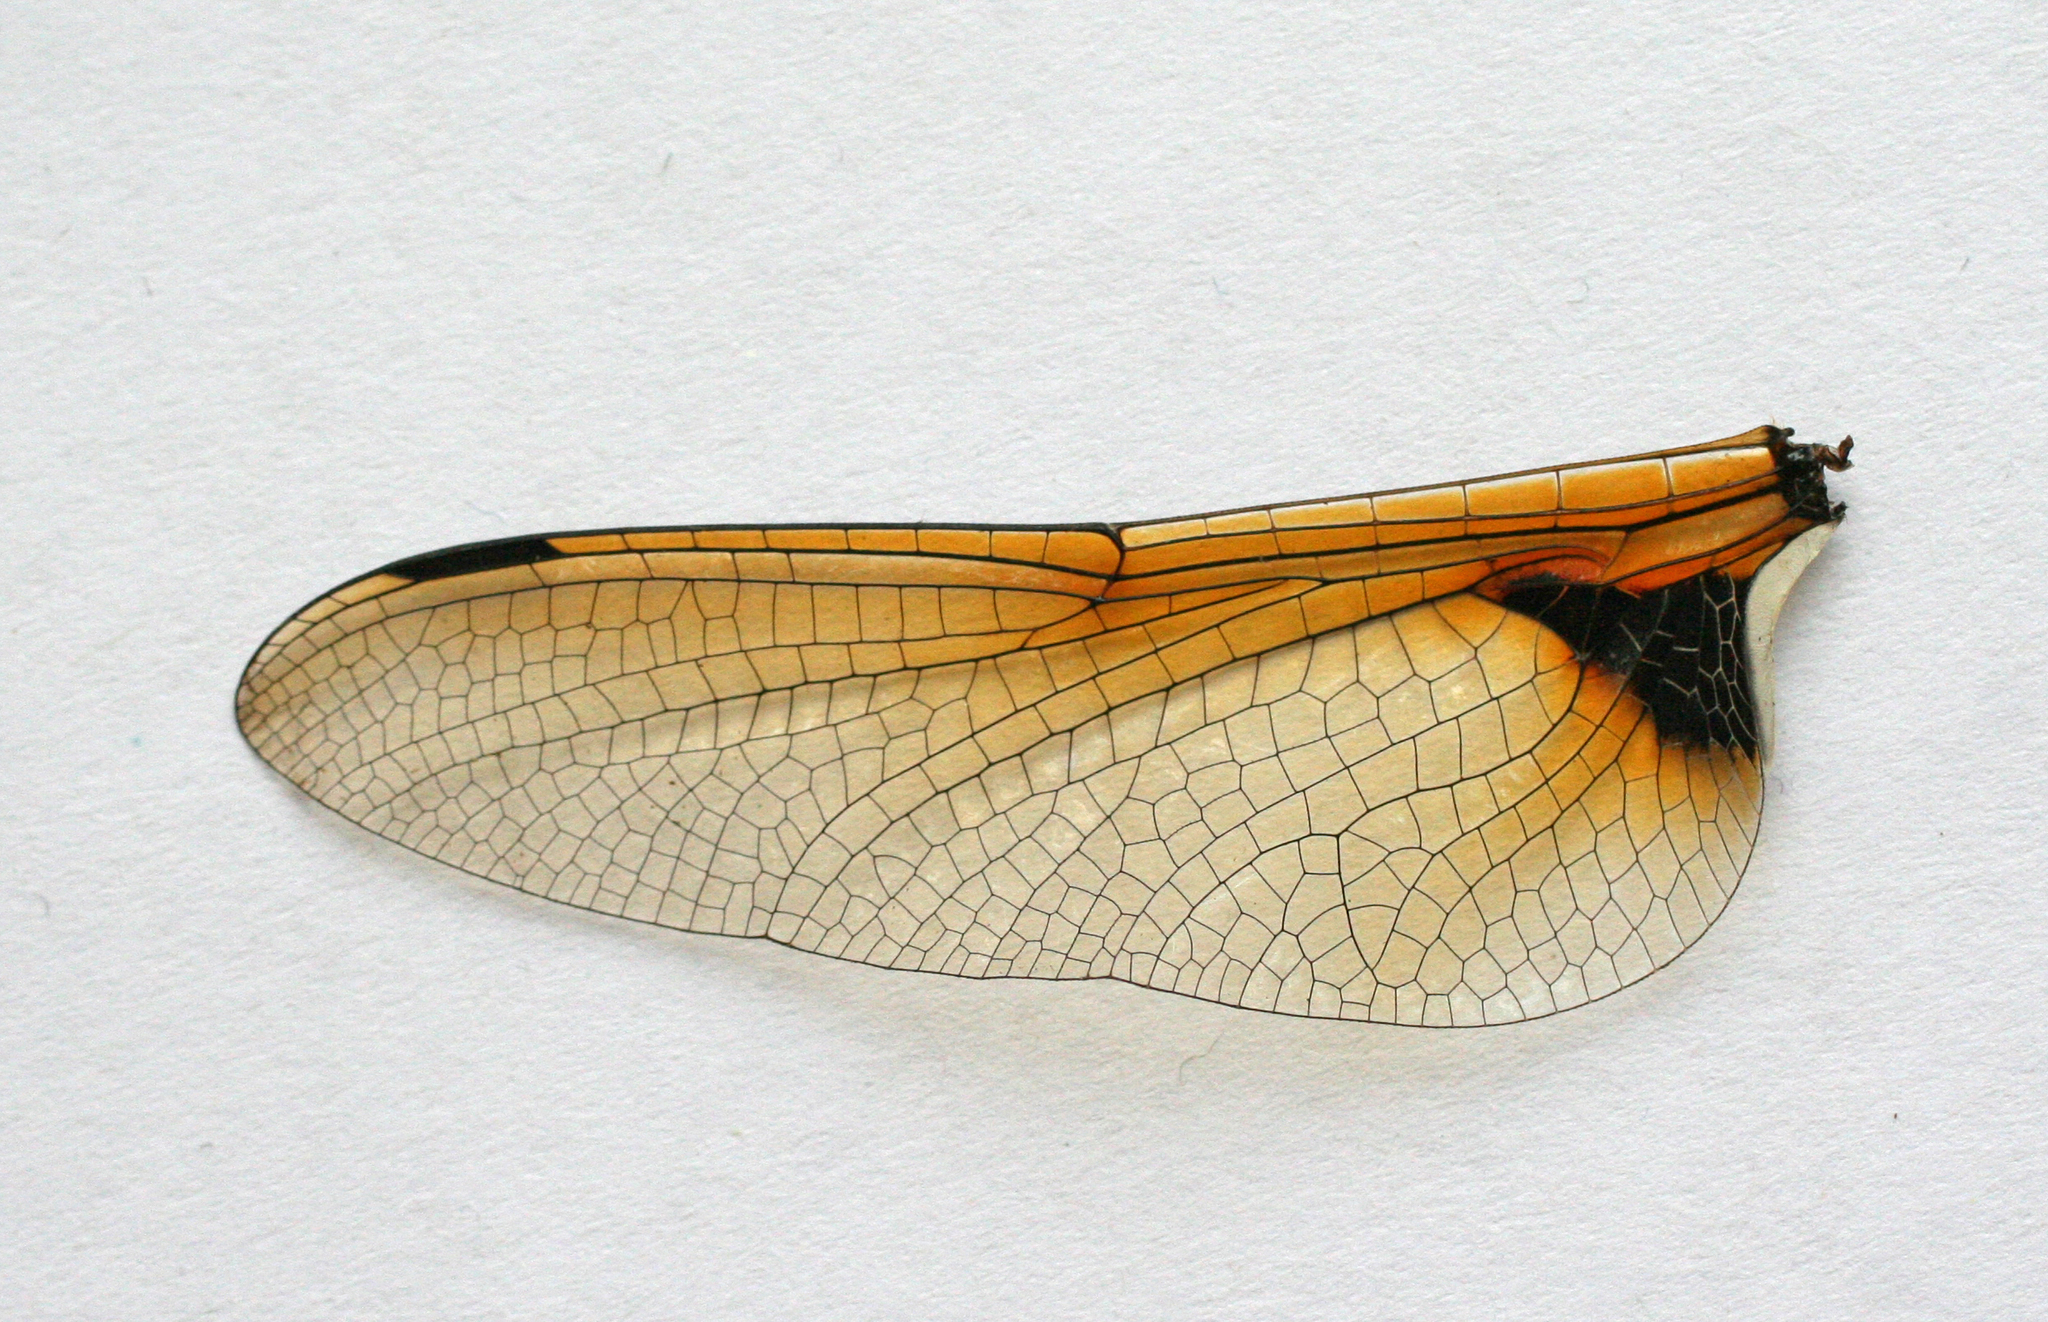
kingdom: Animalia
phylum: Arthropoda
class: Insecta
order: Odonata
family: Corduliidae
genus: Epitheca
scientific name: Epitheca bimaculata
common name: Eurasian baskettail
